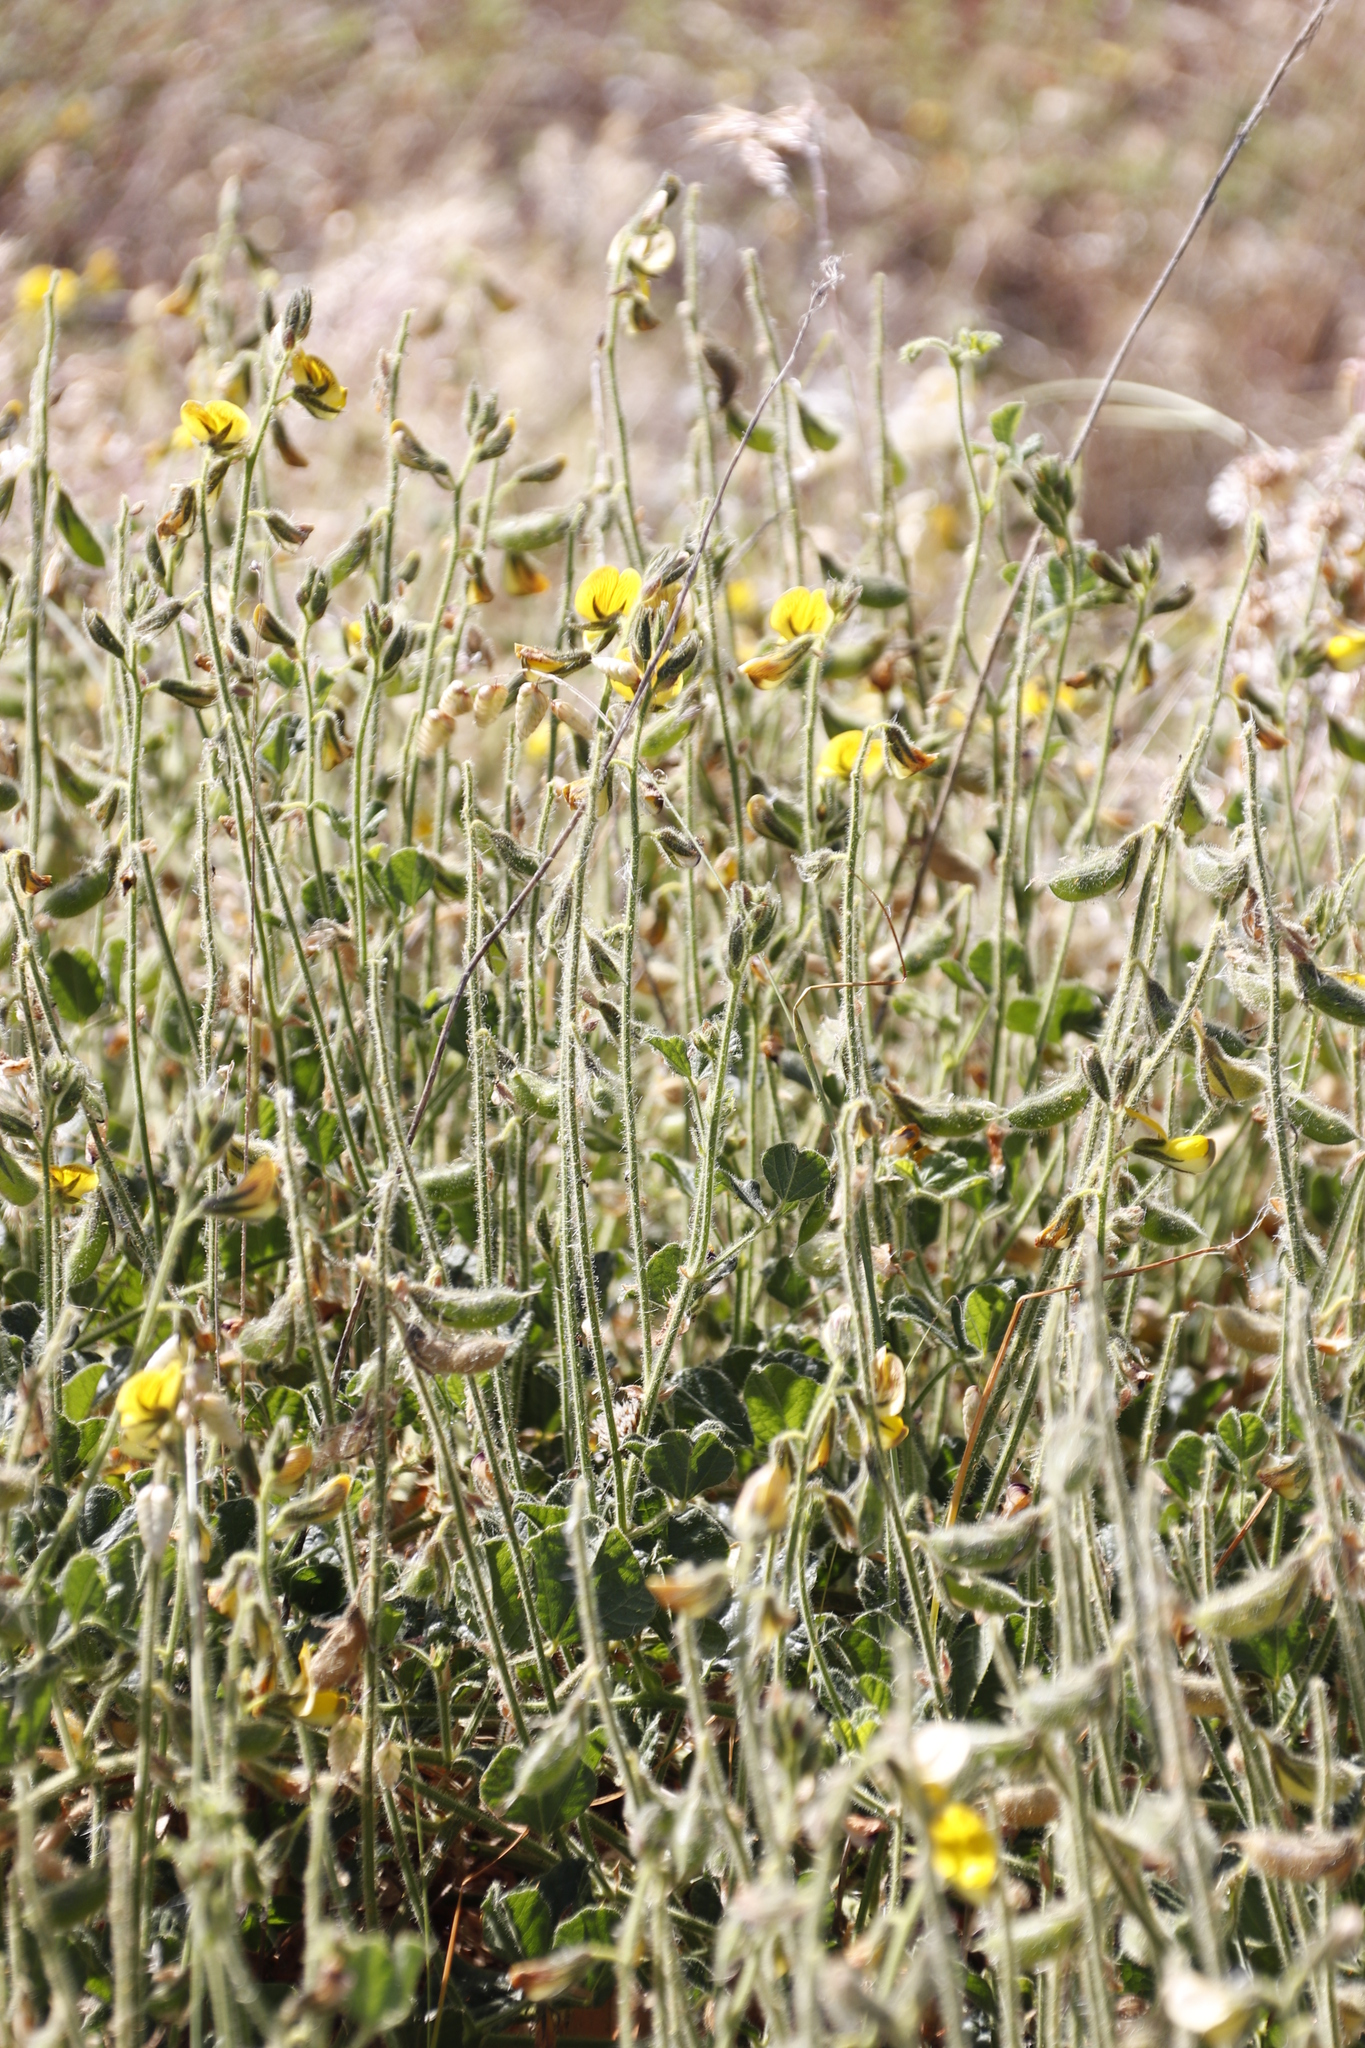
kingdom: Plantae
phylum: Tracheophyta
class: Magnoliopsida
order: Fabales
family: Fabaceae
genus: Bolusafra
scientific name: Bolusafra bituminosa
